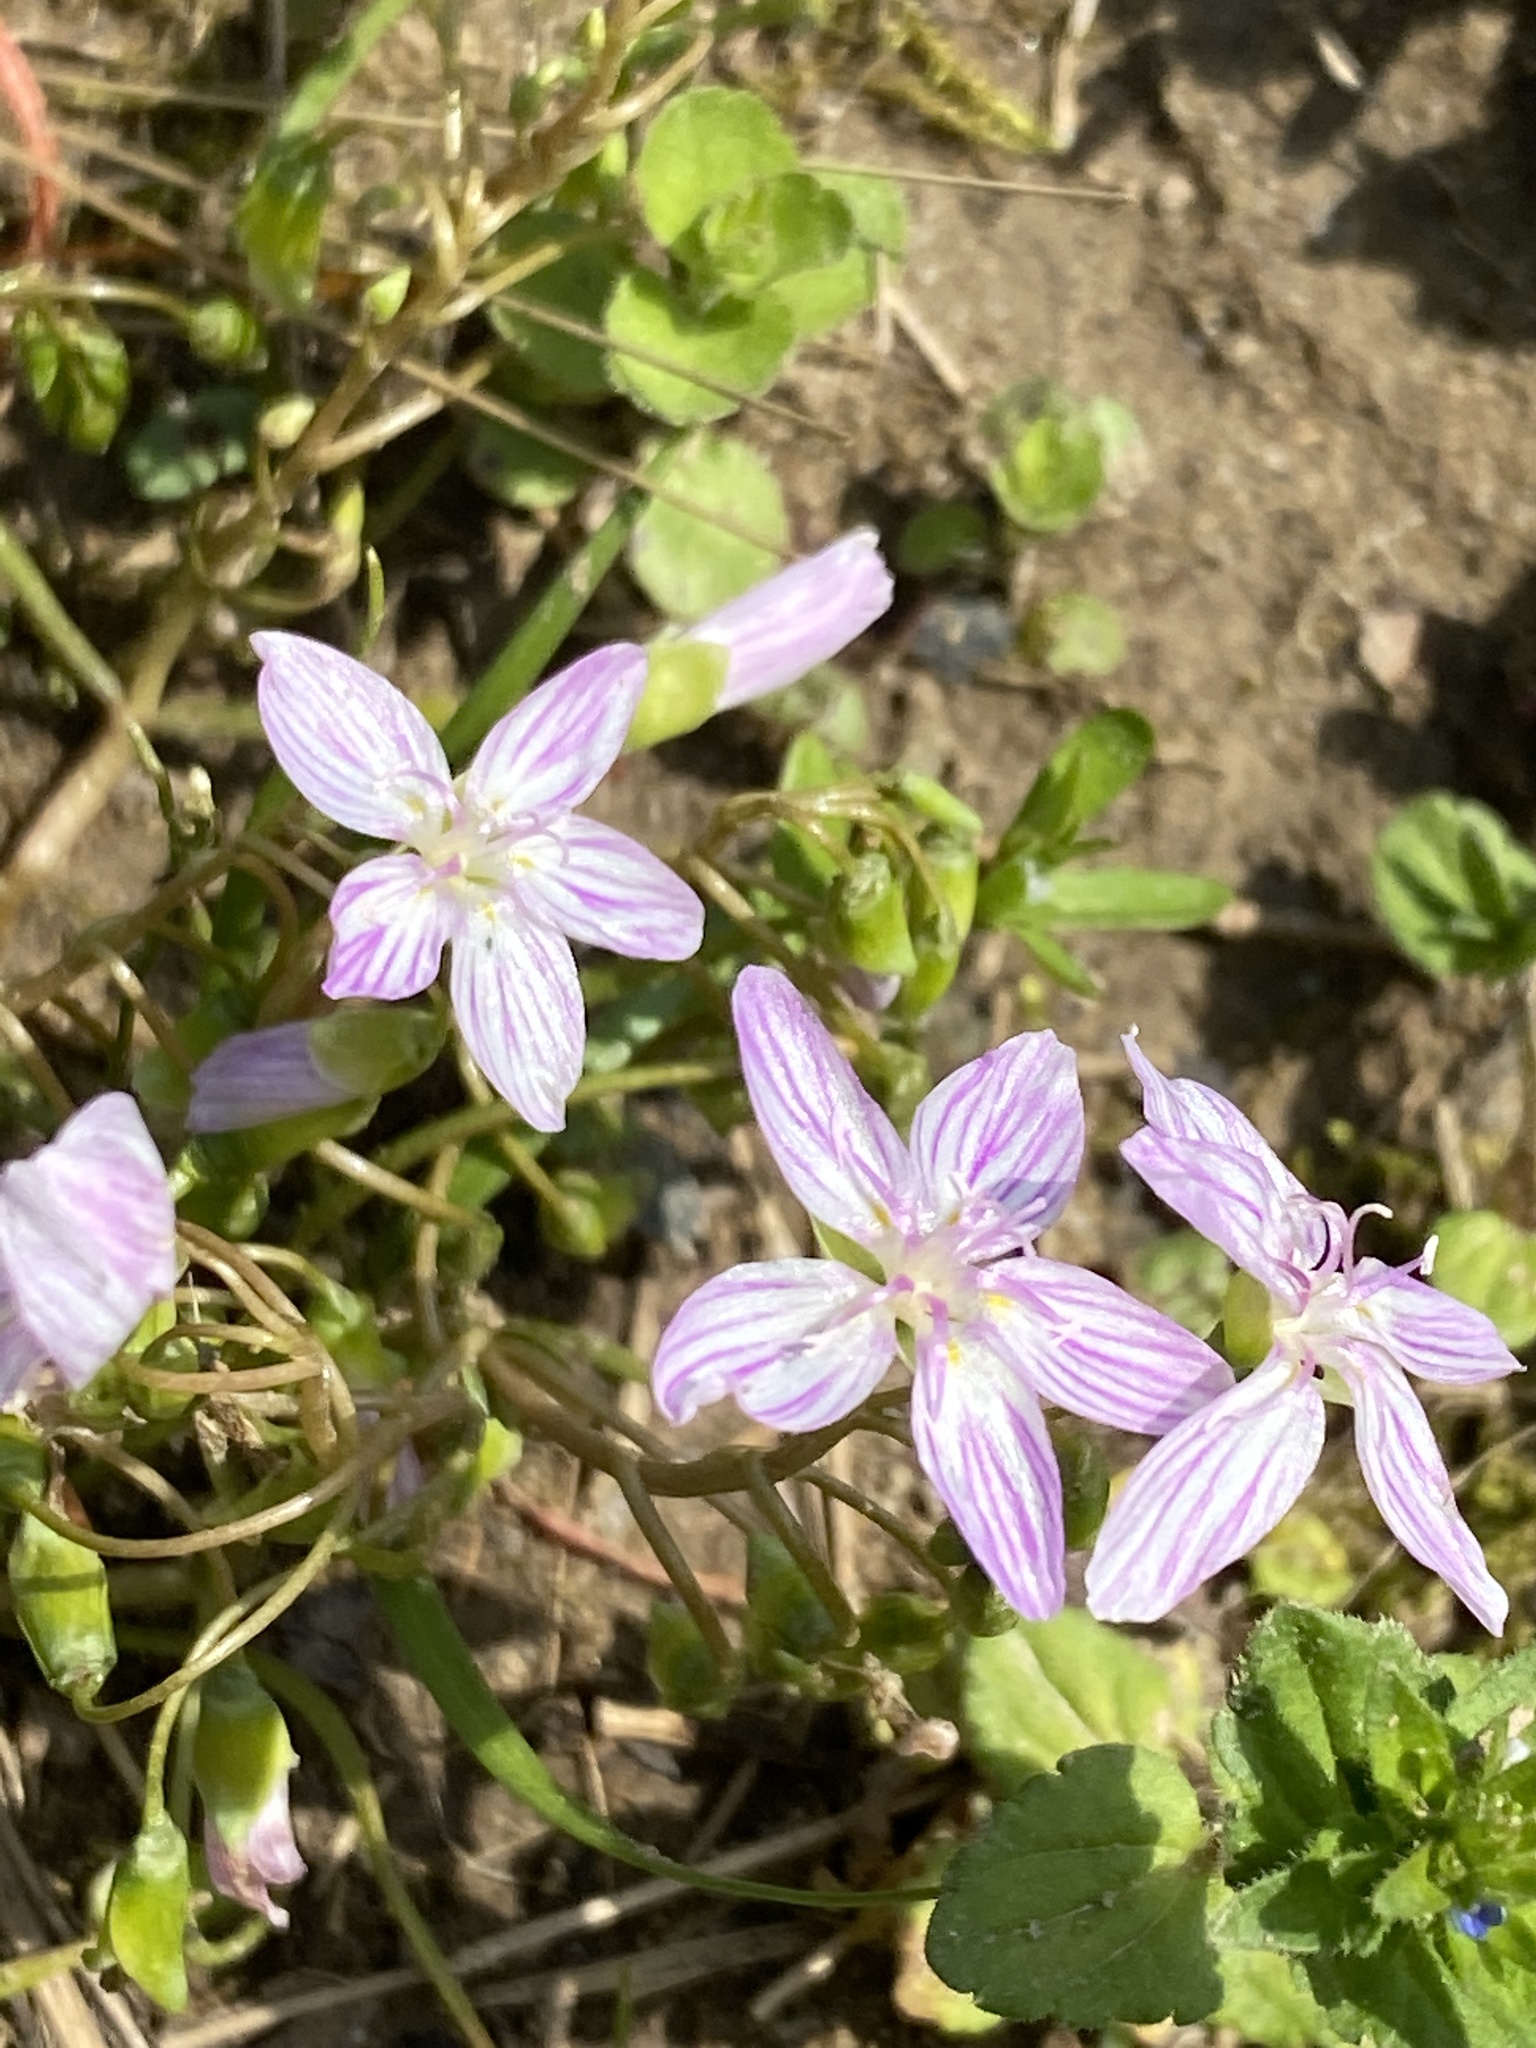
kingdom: Plantae
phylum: Tracheophyta
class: Magnoliopsida
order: Caryophyllales
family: Montiaceae
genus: Claytonia
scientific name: Claytonia virginica
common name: Virginia springbeauty
